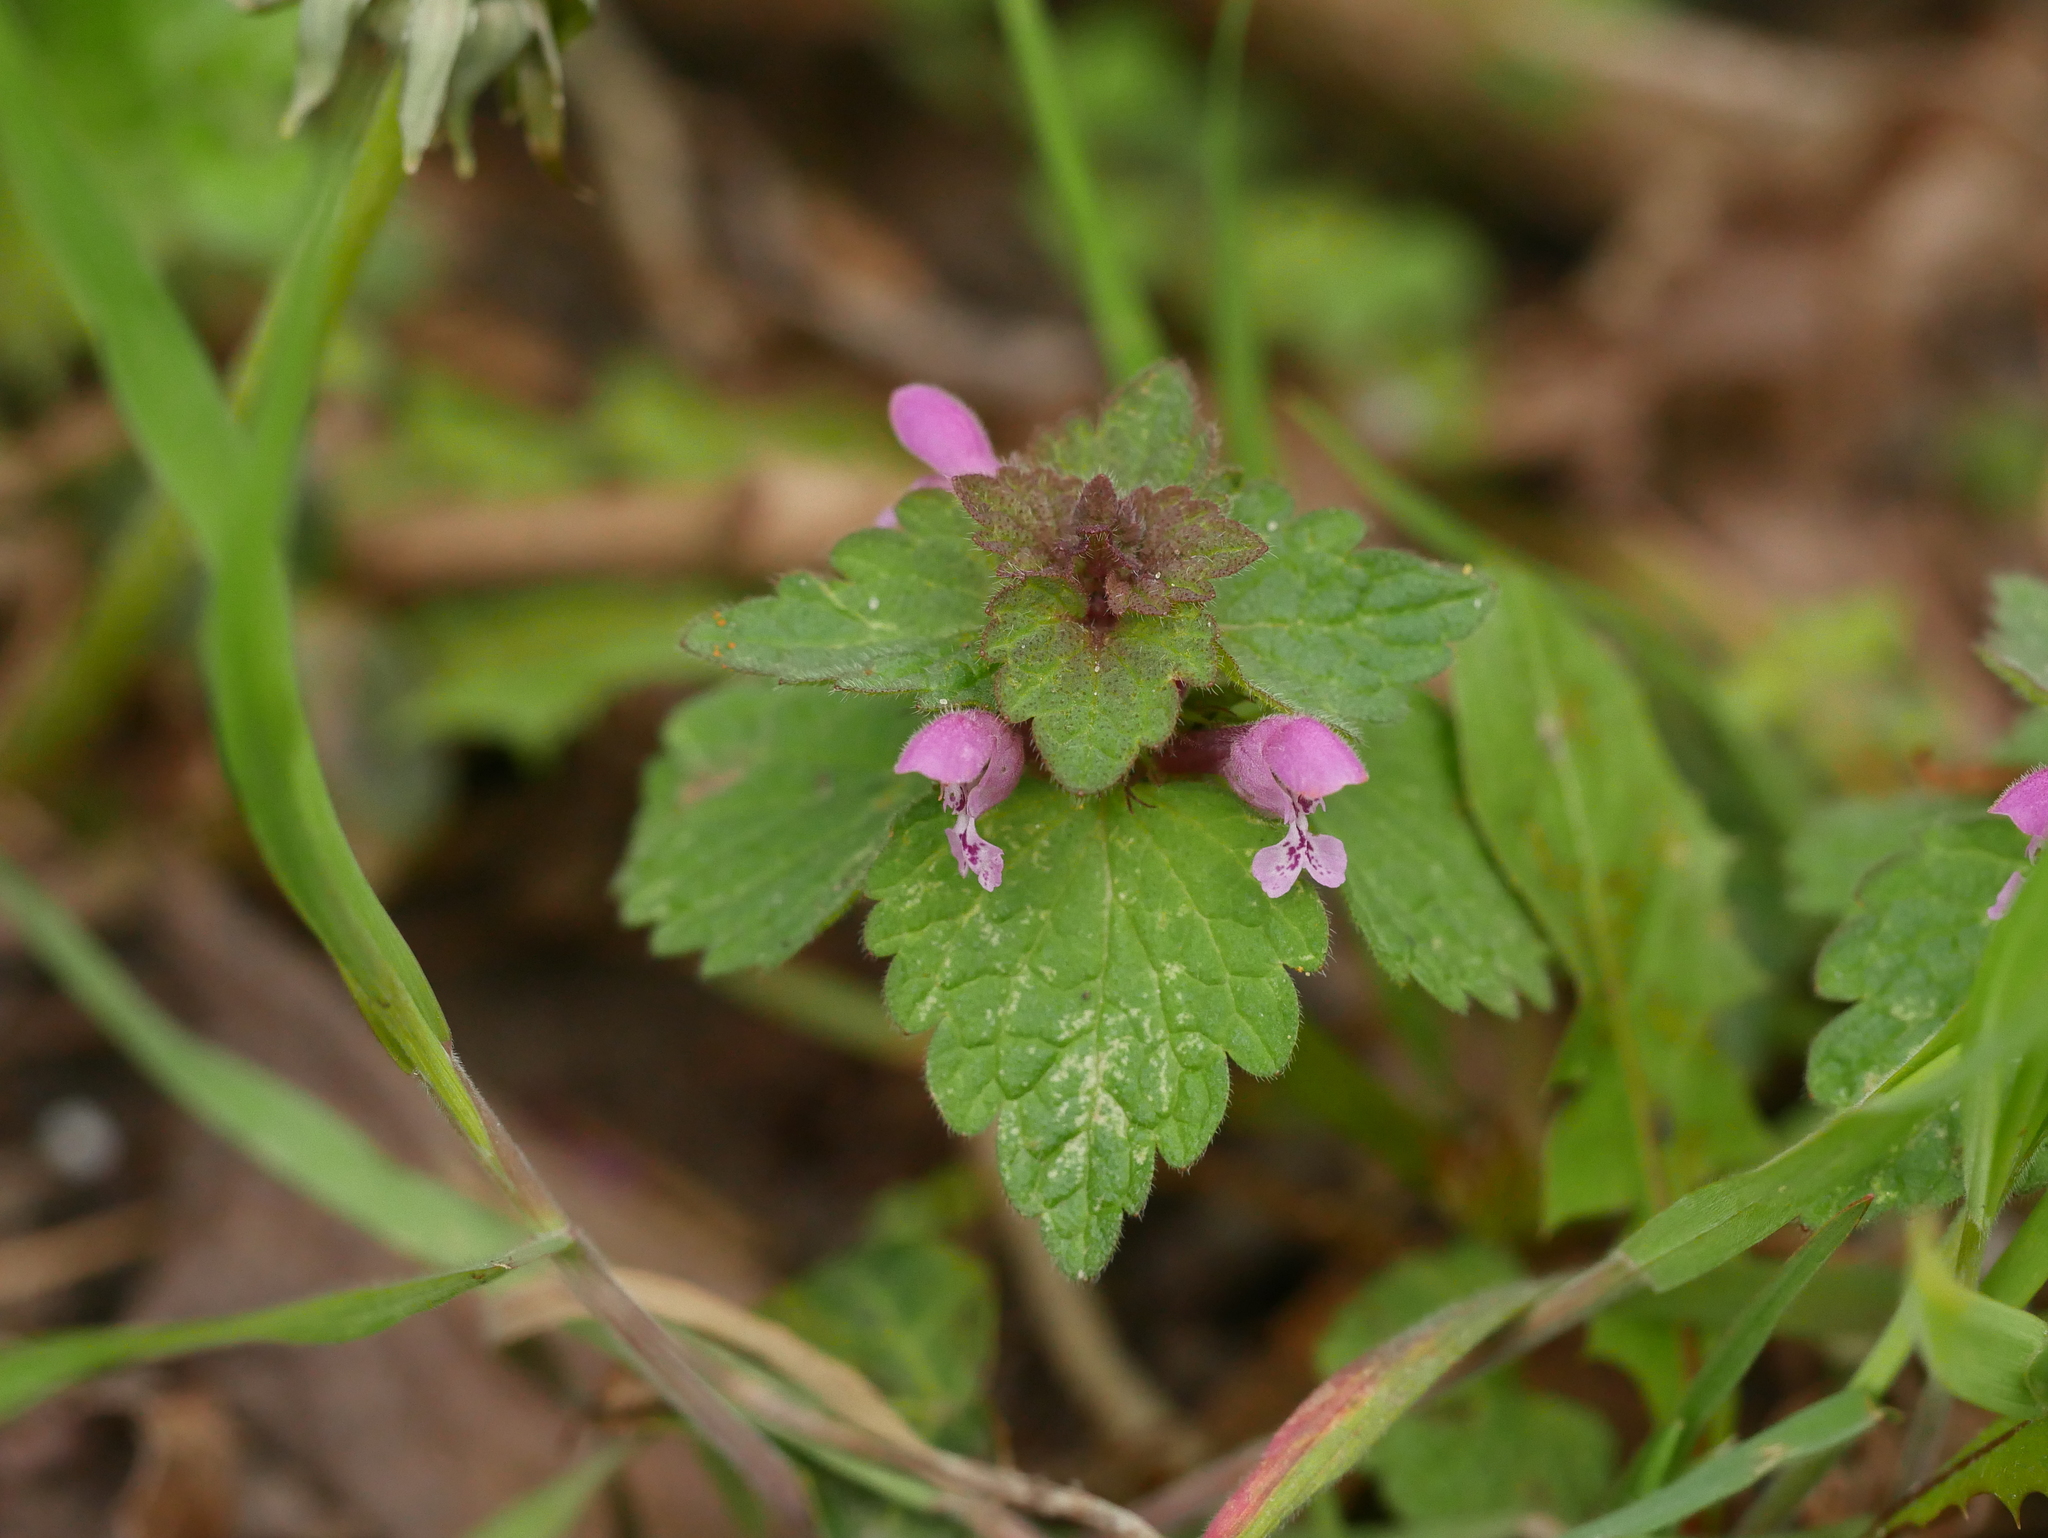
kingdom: Plantae
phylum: Tracheophyta
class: Magnoliopsida
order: Lamiales
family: Lamiaceae
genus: Lamium
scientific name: Lamium purpureum
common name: Red dead-nettle
